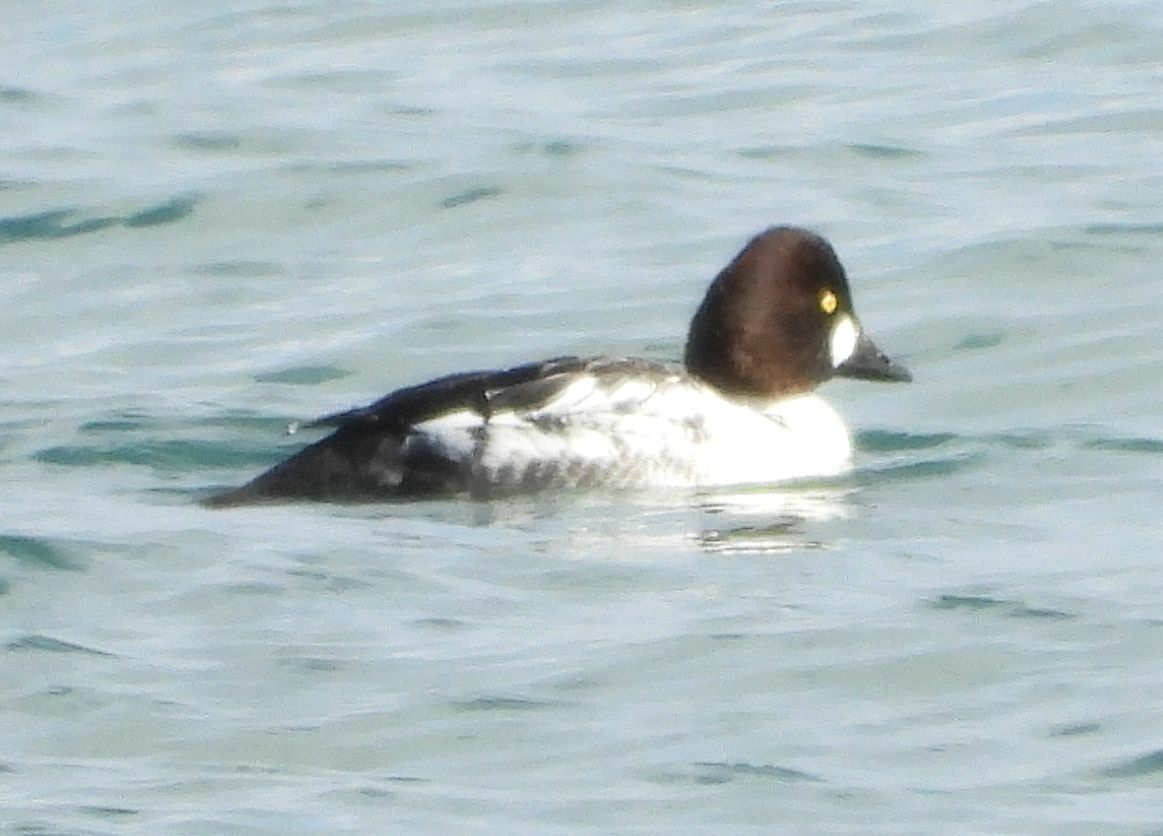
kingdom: Animalia
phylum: Chordata
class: Aves
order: Anseriformes
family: Anatidae
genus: Bucephala
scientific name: Bucephala clangula
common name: Common goldeneye
